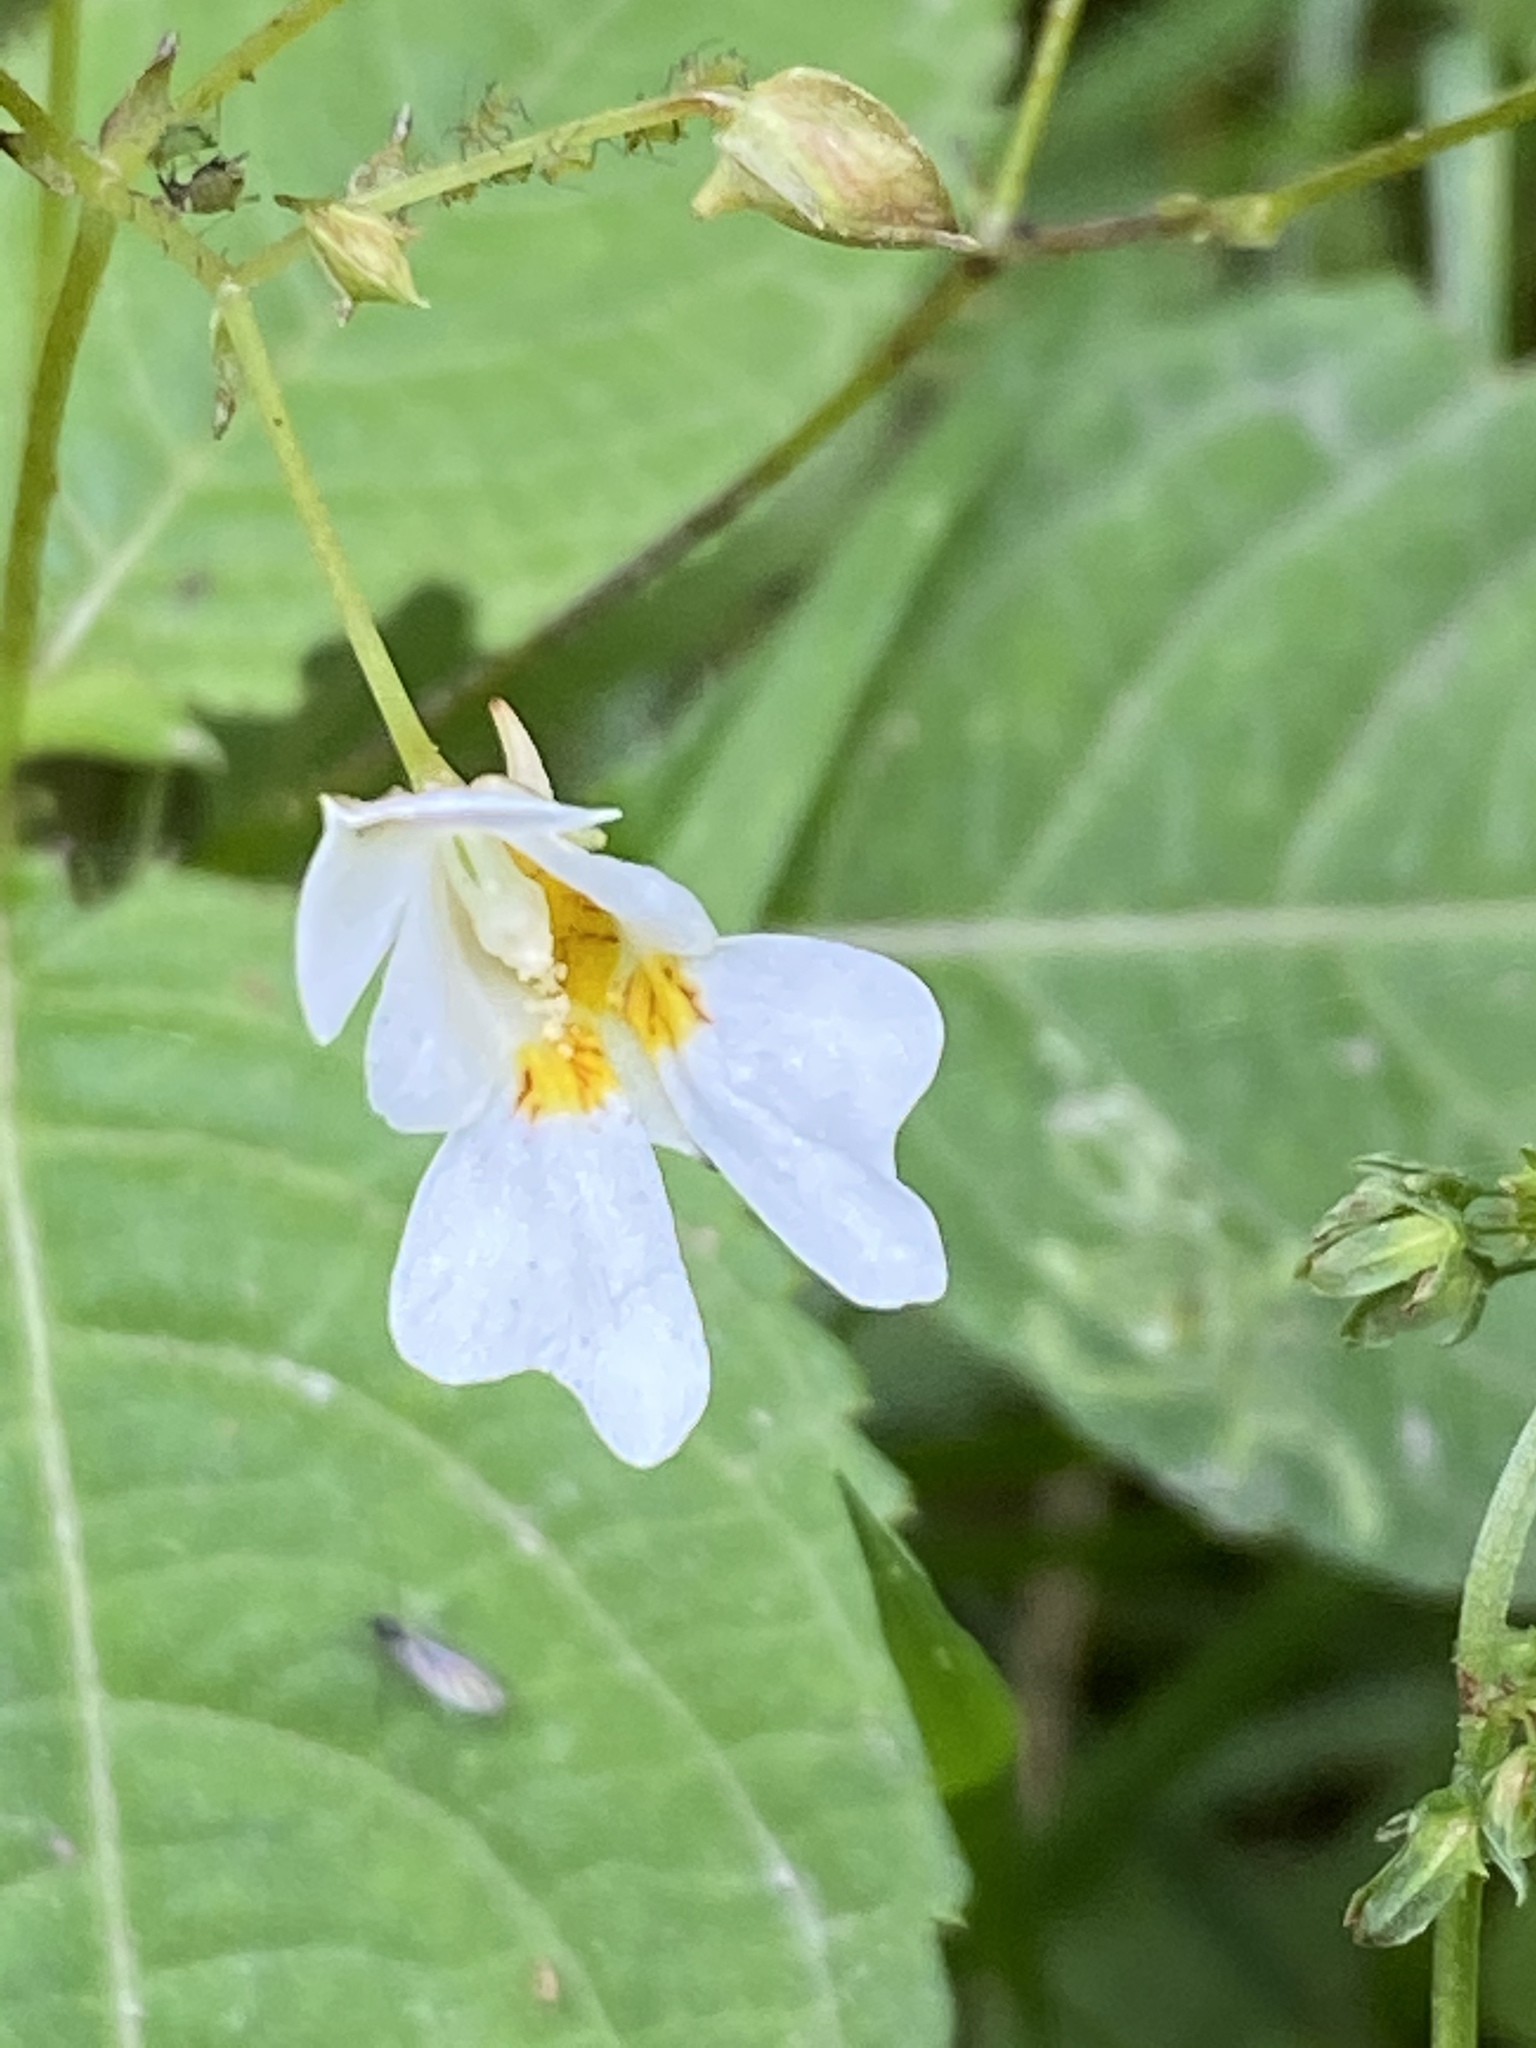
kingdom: Plantae
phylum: Tracheophyta
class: Magnoliopsida
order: Ericales
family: Balsaminaceae
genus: Impatiens
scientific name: Impatiens parviflora
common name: Small balsam
